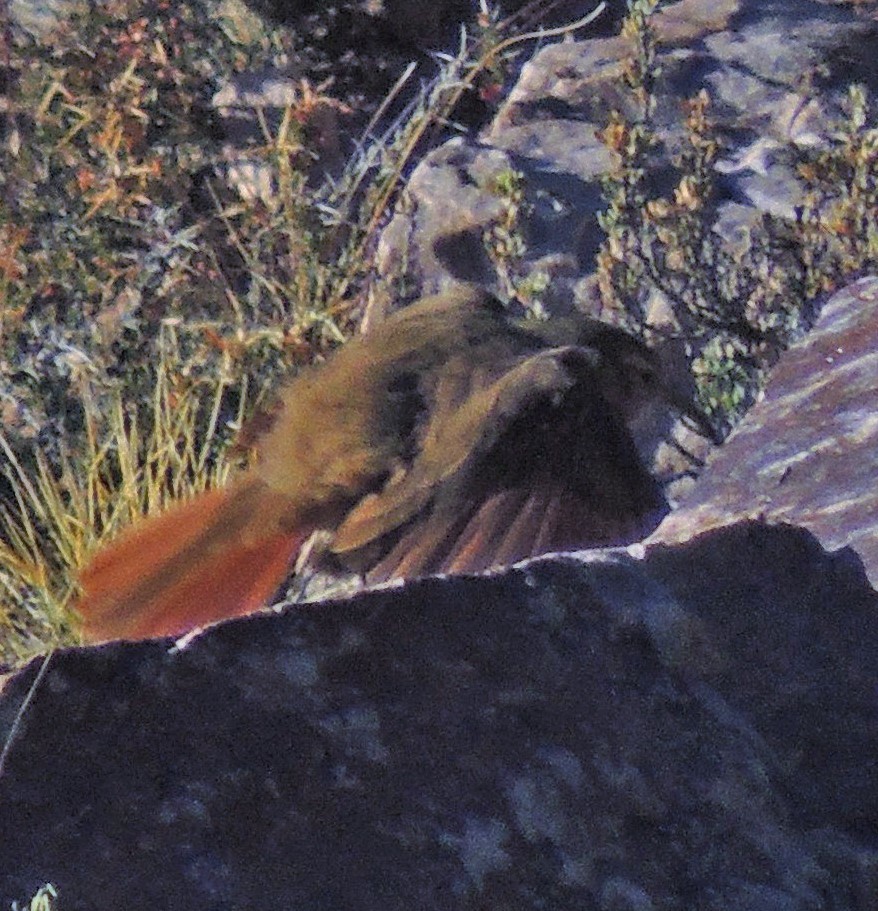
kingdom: Animalia
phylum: Chordata
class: Aves
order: Passeriformes
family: Furnariidae
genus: Upucerthia
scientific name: Upucerthia validirostris
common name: Buff-breasted earthcreeper
